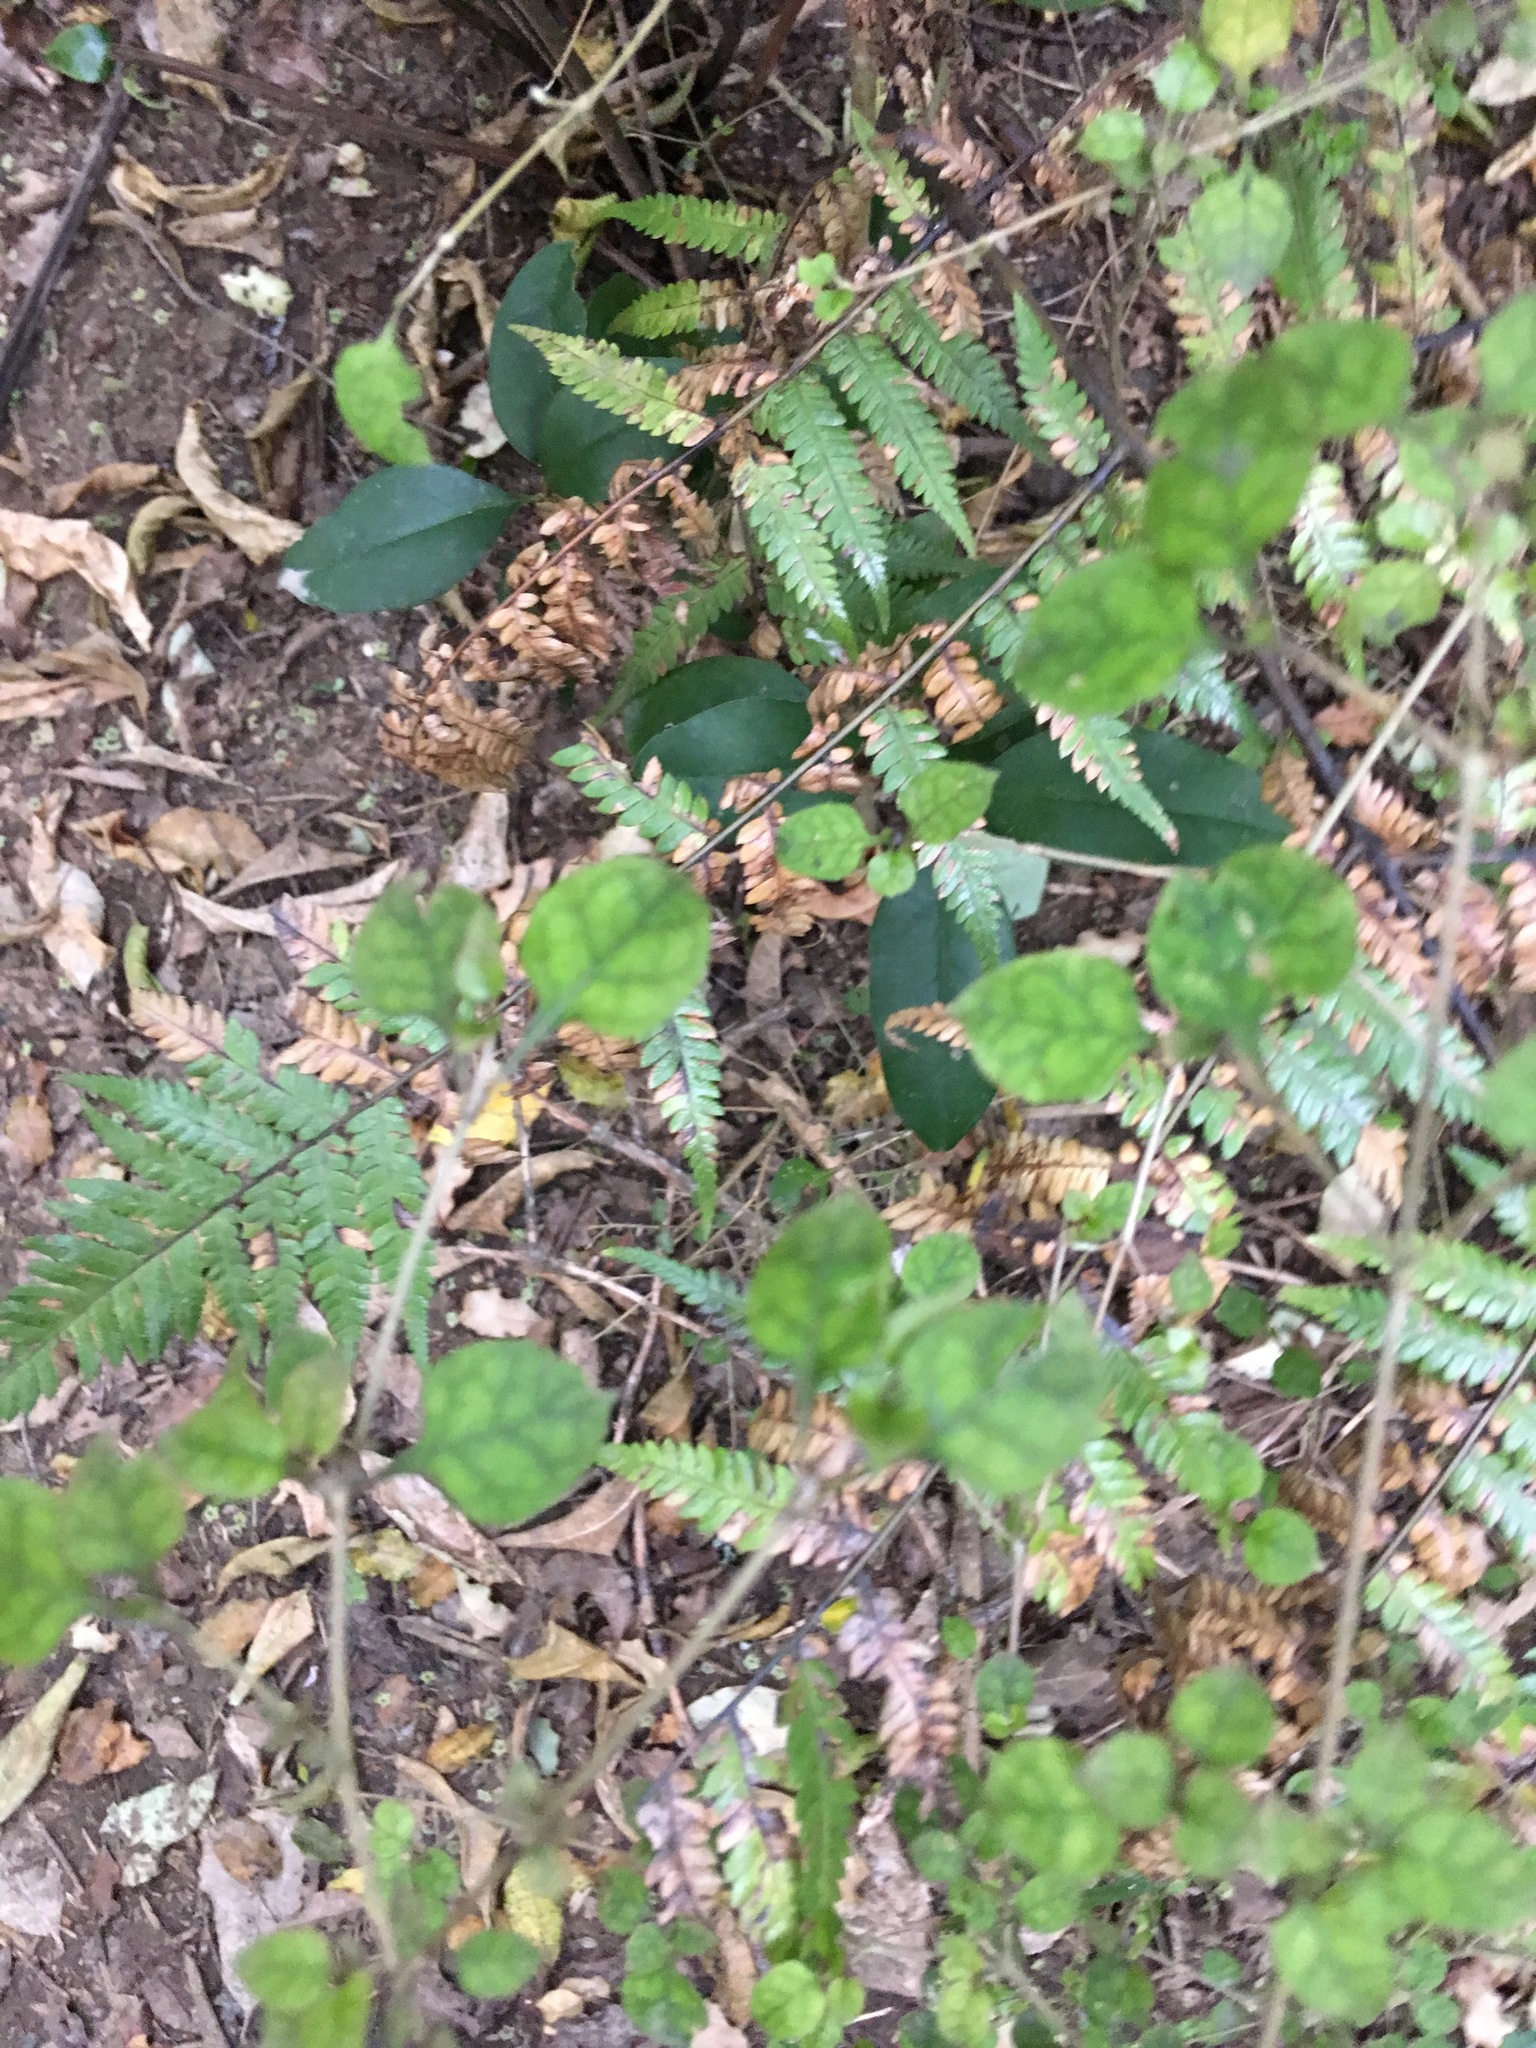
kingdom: Plantae
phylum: Tracheophyta
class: Magnoliopsida
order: Lamiales
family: Oleaceae
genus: Ligustrum
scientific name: Ligustrum lucidum
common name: Glossy privet
